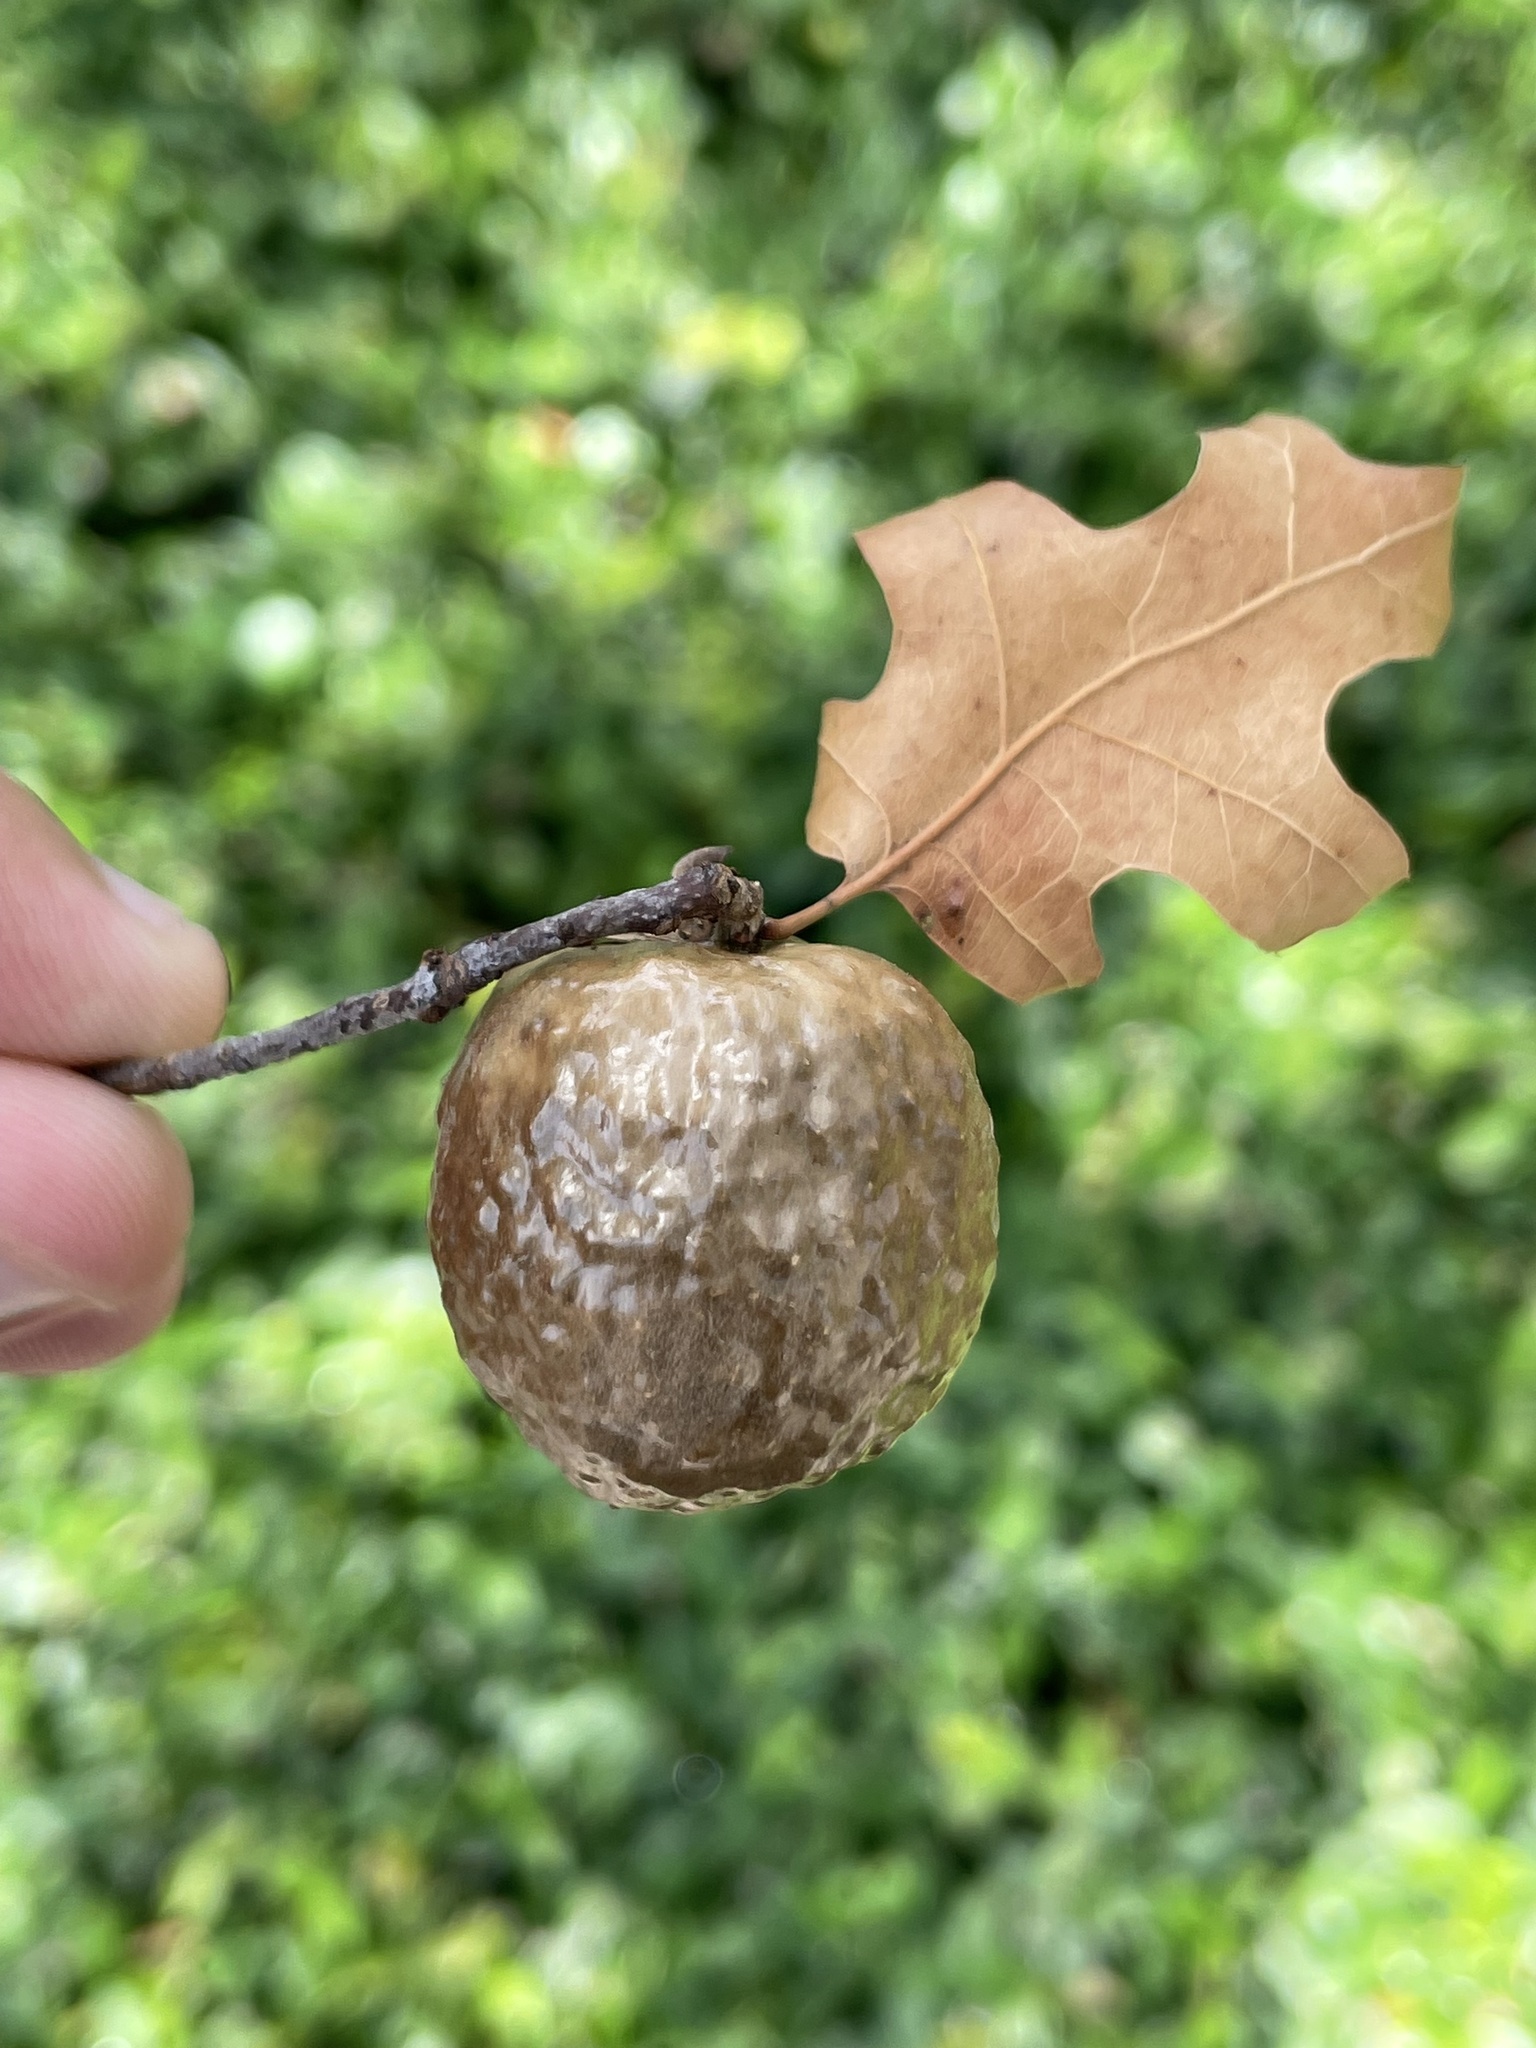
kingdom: Animalia
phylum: Arthropoda
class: Insecta
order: Hymenoptera
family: Cynipidae
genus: Amphibolips
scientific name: Amphibolips
